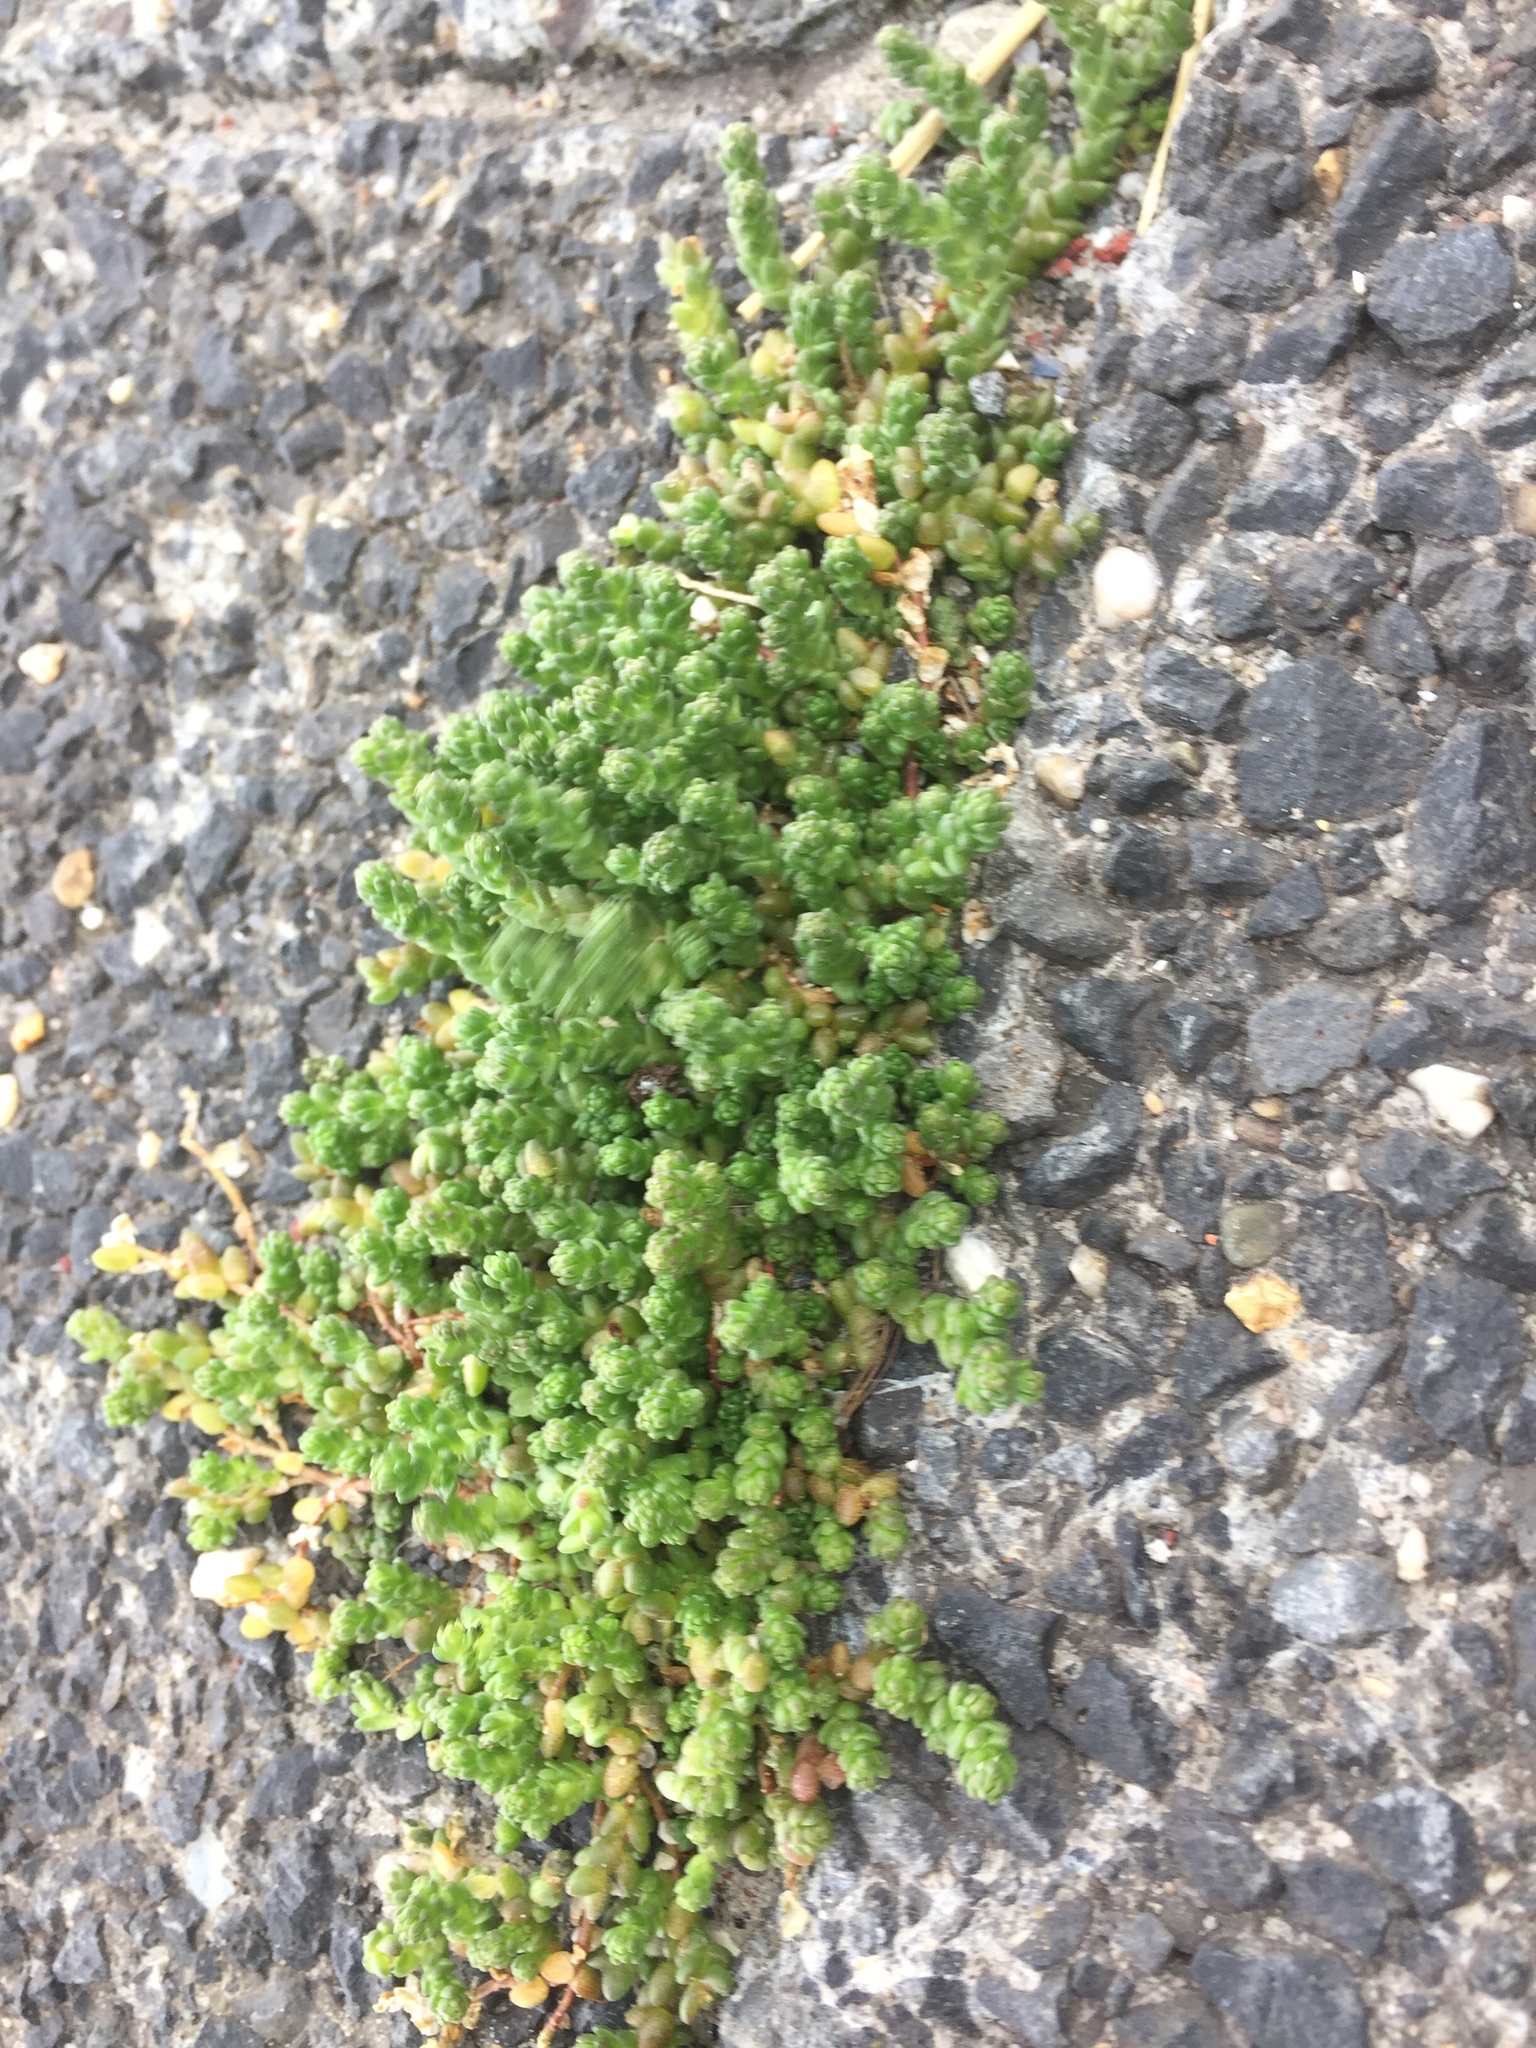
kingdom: Plantae
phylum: Tracheophyta
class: Magnoliopsida
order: Saxifragales
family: Crassulaceae
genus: Sedum
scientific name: Sedum acre
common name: Biting stonecrop
